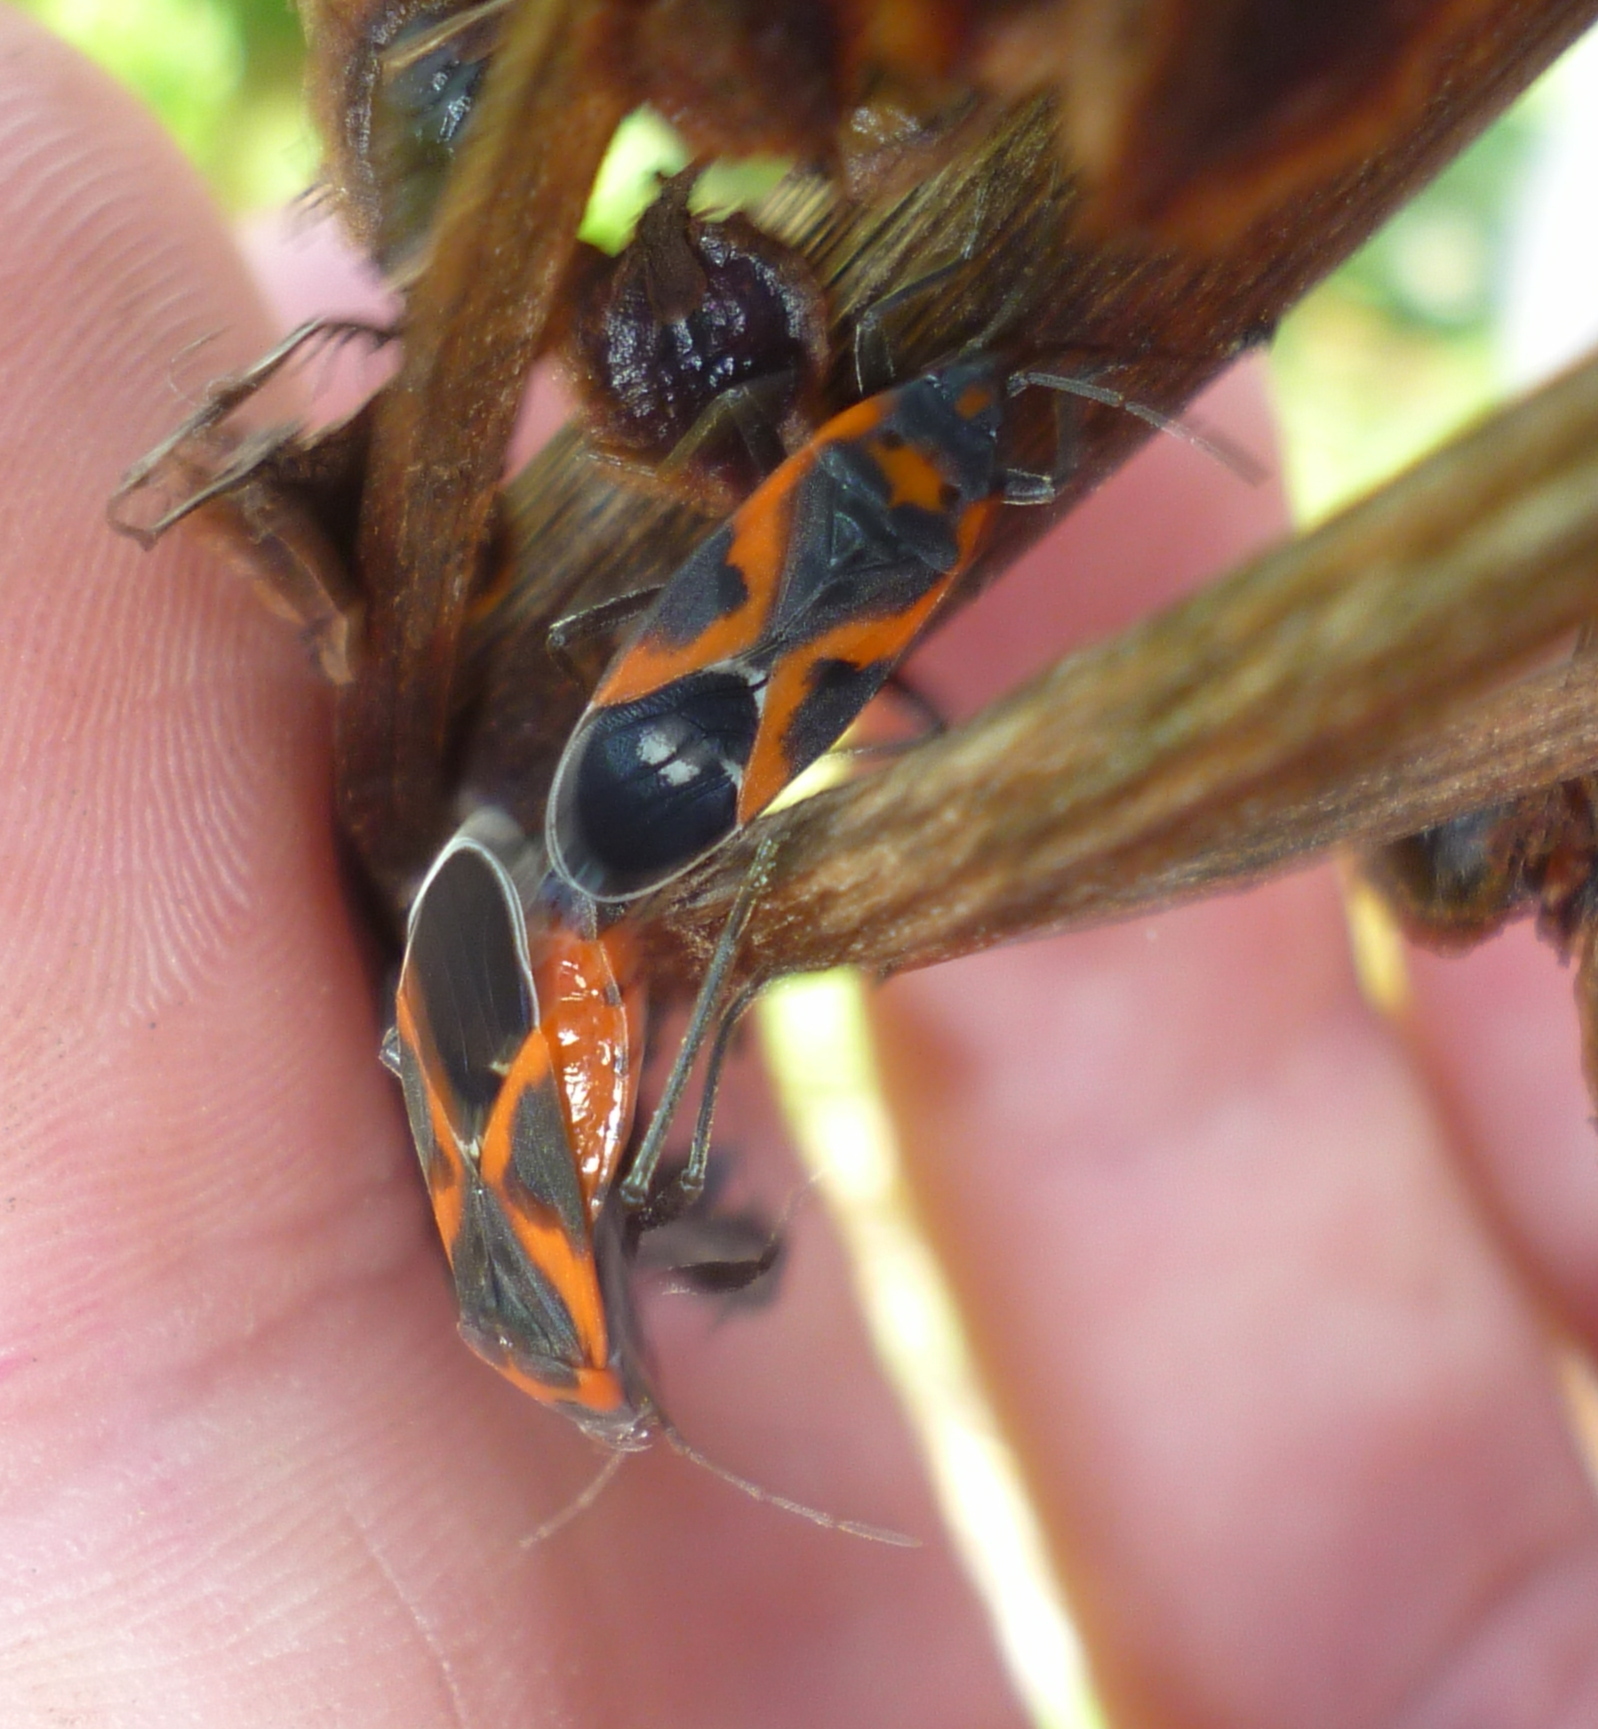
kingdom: Animalia
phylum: Arthropoda
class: Insecta
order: Hemiptera
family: Lygaeidae
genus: Lygaeus
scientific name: Lygaeus kalmii
